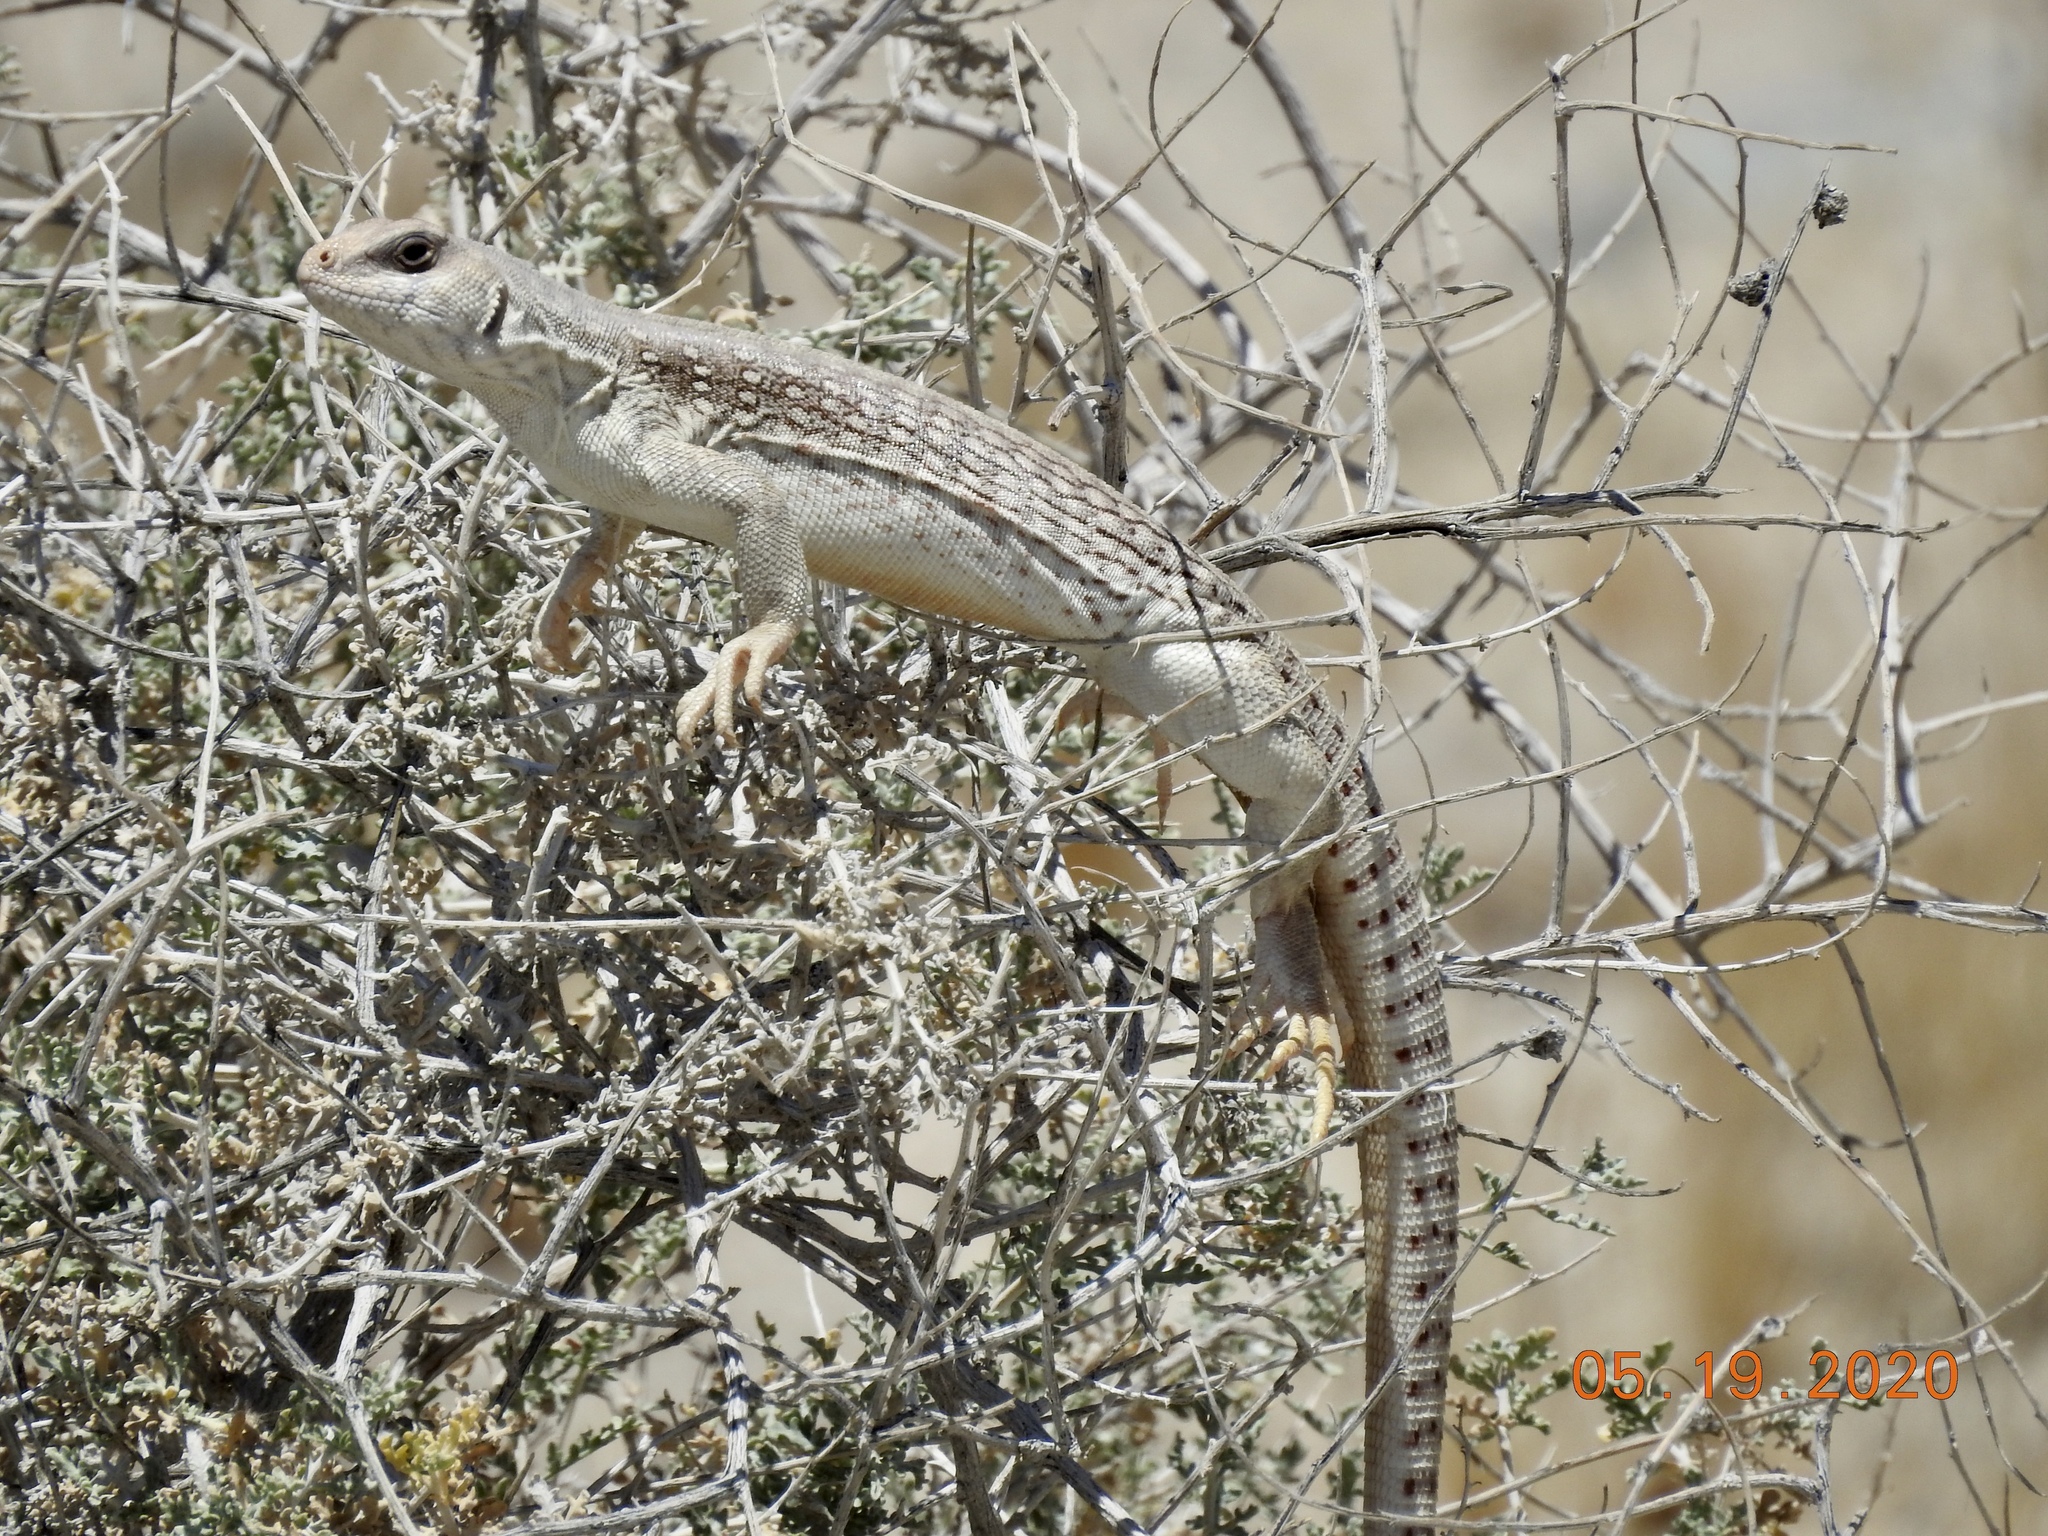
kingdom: Animalia
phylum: Chordata
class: Squamata
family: Iguanidae
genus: Dipsosaurus
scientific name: Dipsosaurus dorsalis
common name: Desert iguana
